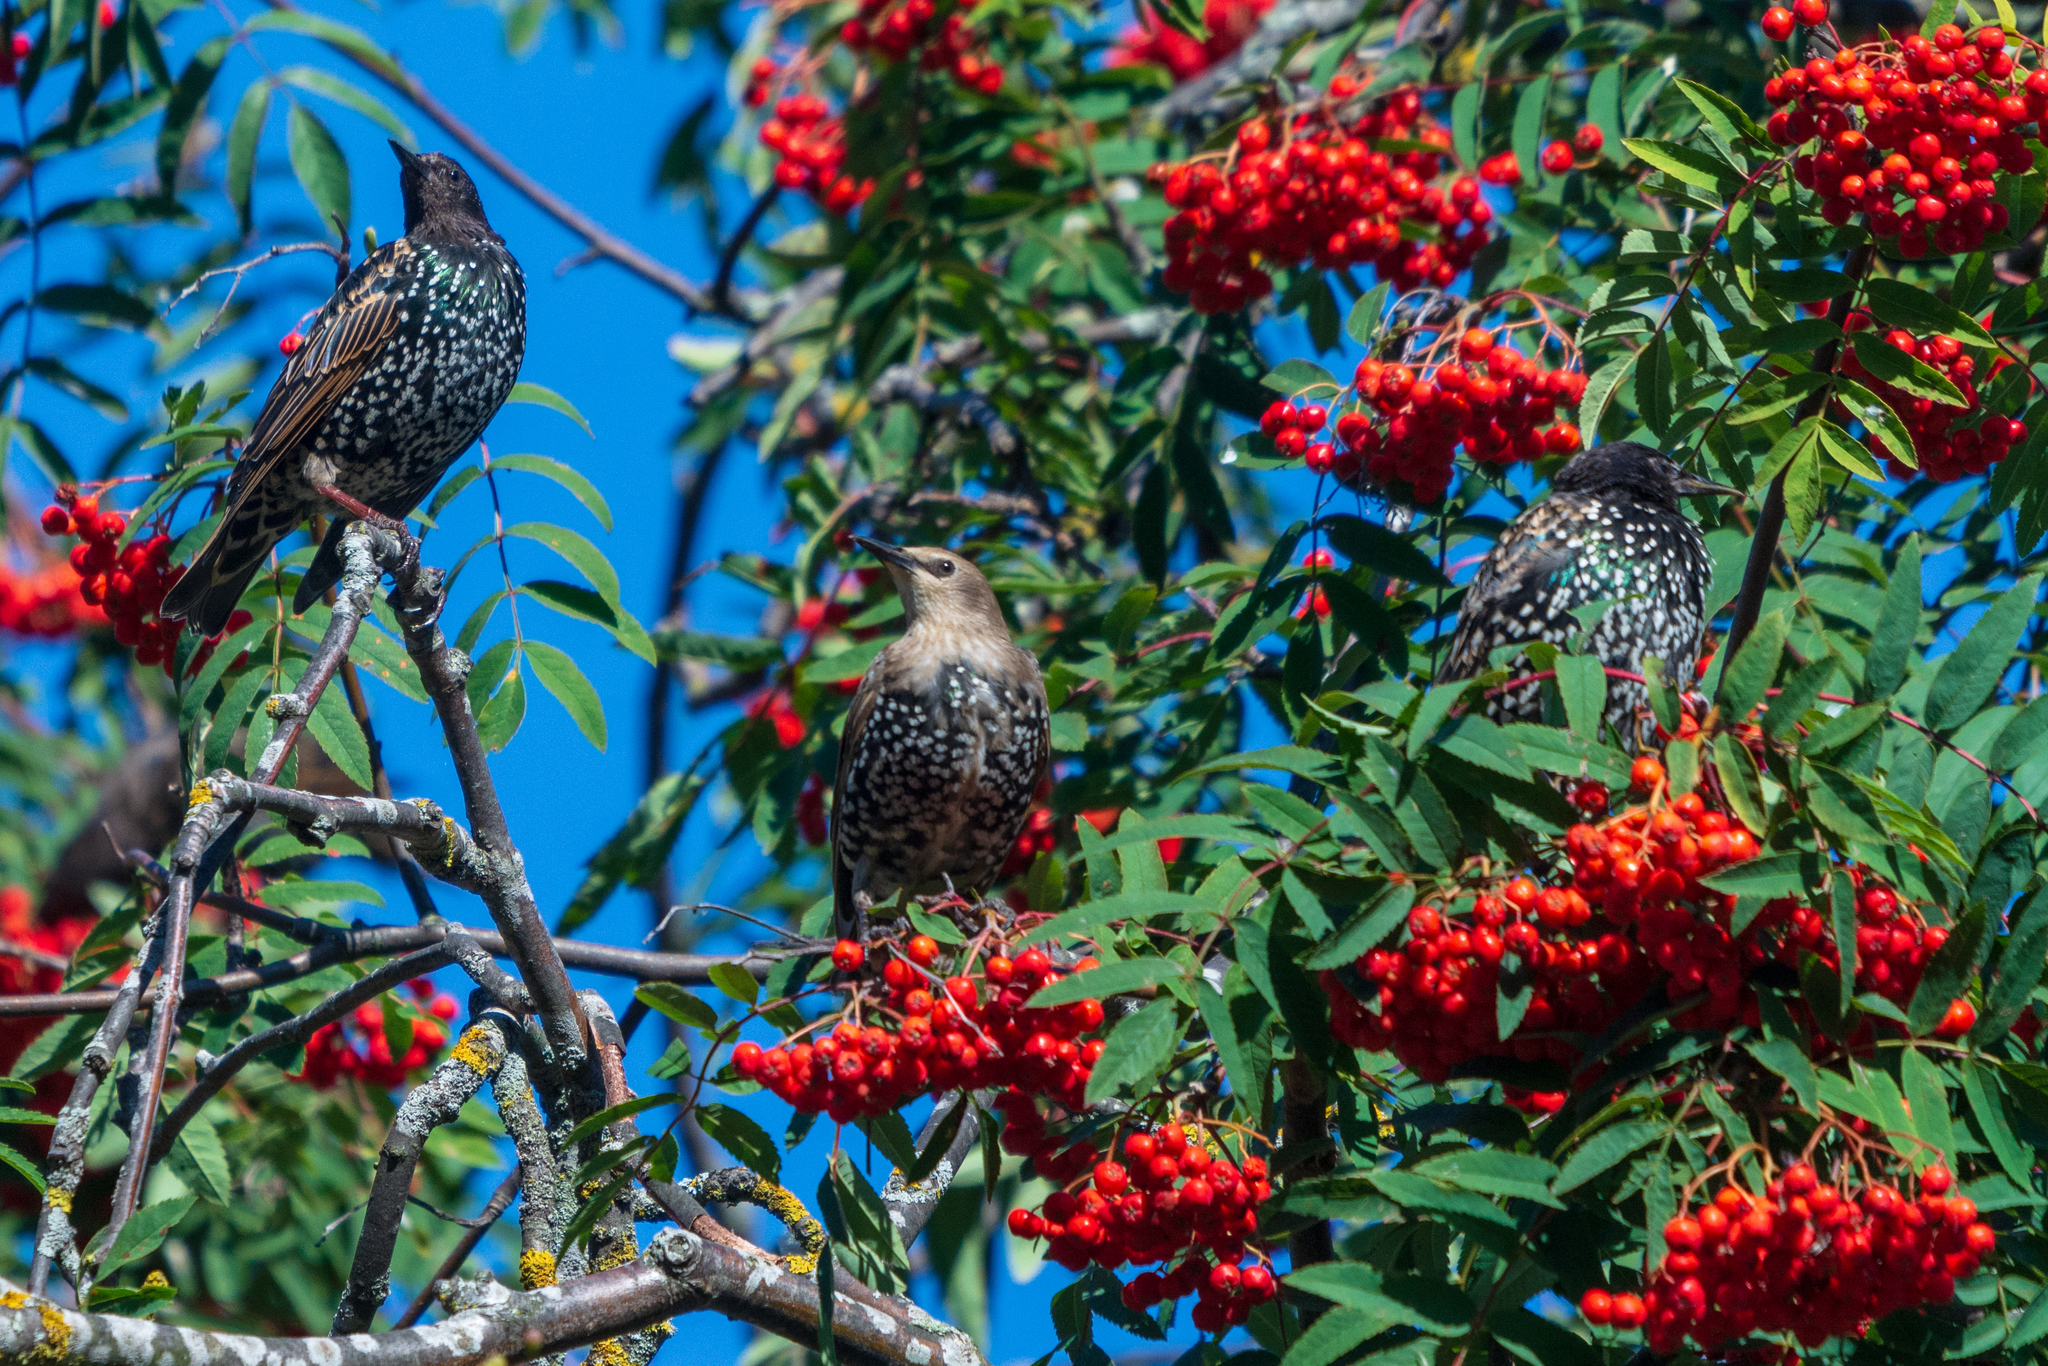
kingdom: Animalia
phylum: Chordata
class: Aves
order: Passeriformes
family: Sturnidae
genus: Sturnus
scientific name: Sturnus vulgaris
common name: Common starling
